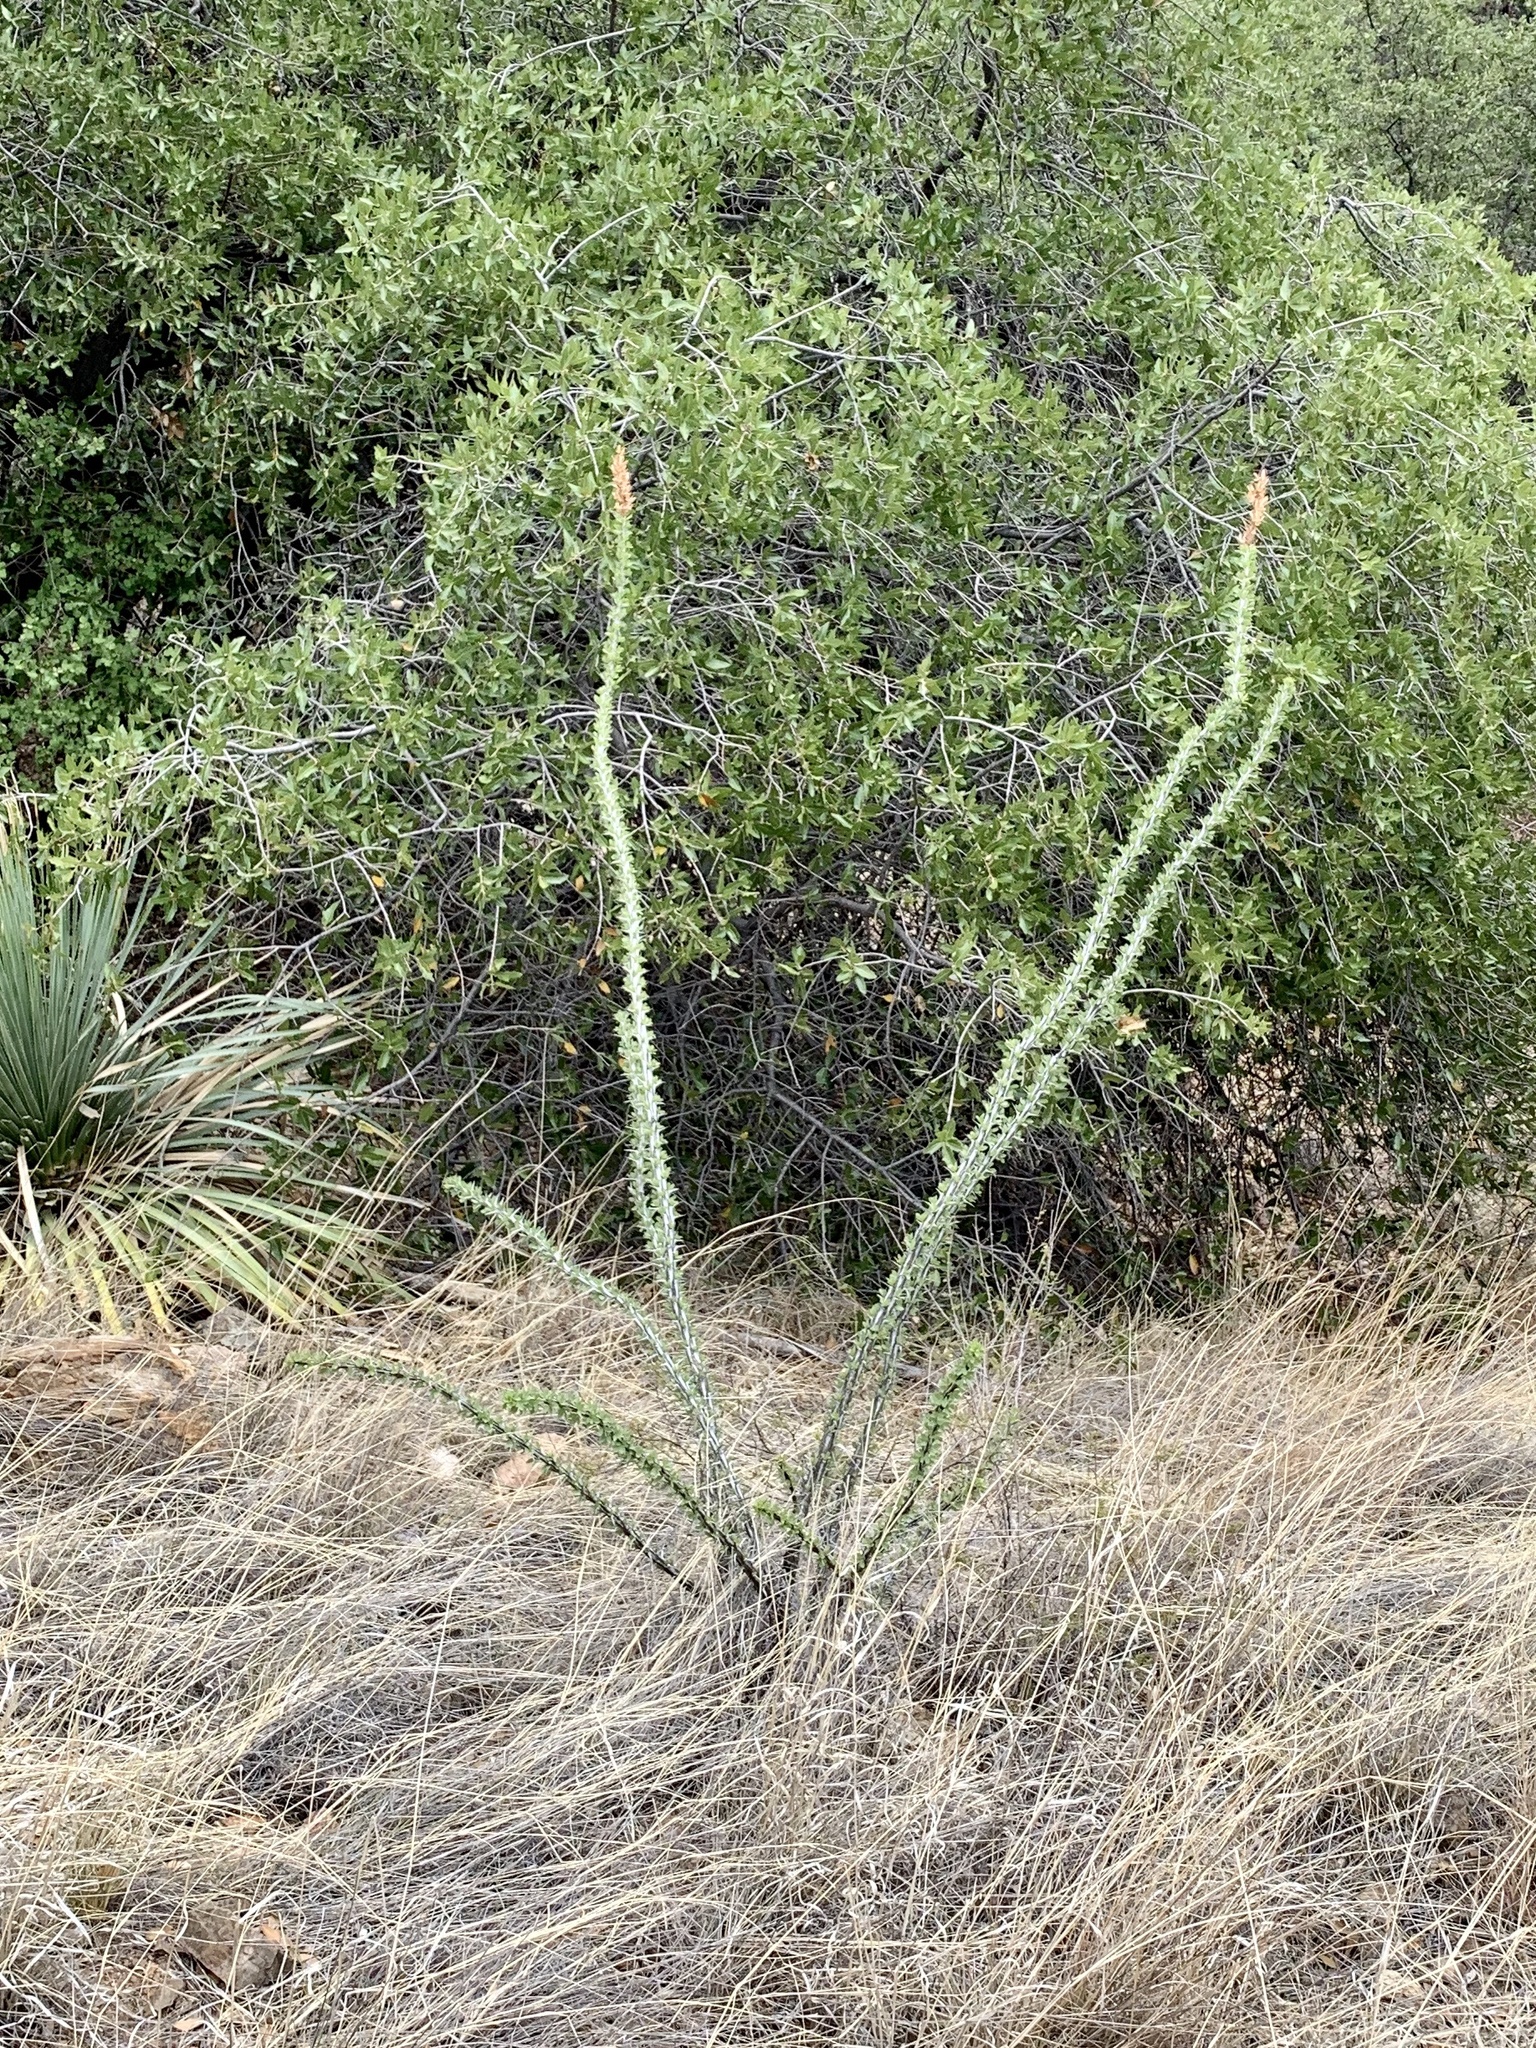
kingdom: Plantae
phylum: Tracheophyta
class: Magnoliopsida
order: Ericales
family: Fouquieriaceae
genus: Fouquieria
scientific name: Fouquieria splendens
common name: Vine-cactus
